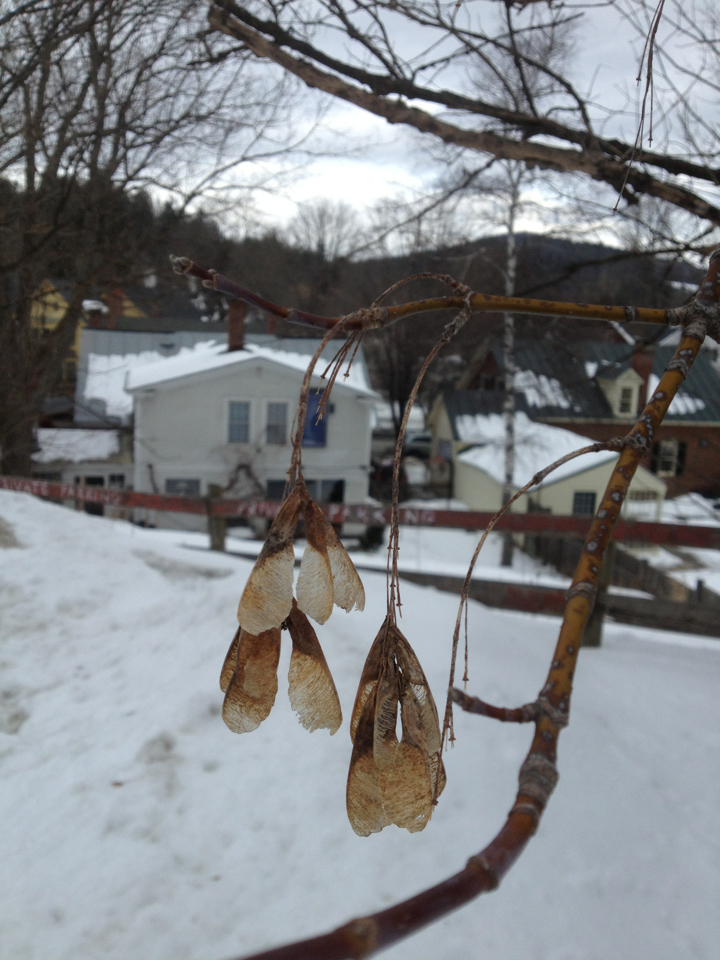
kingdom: Plantae
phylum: Tracheophyta
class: Magnoliopsida
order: Sapindales
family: Sapindaceae
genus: Acer
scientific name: Acer negundo
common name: Ashleaf maple
